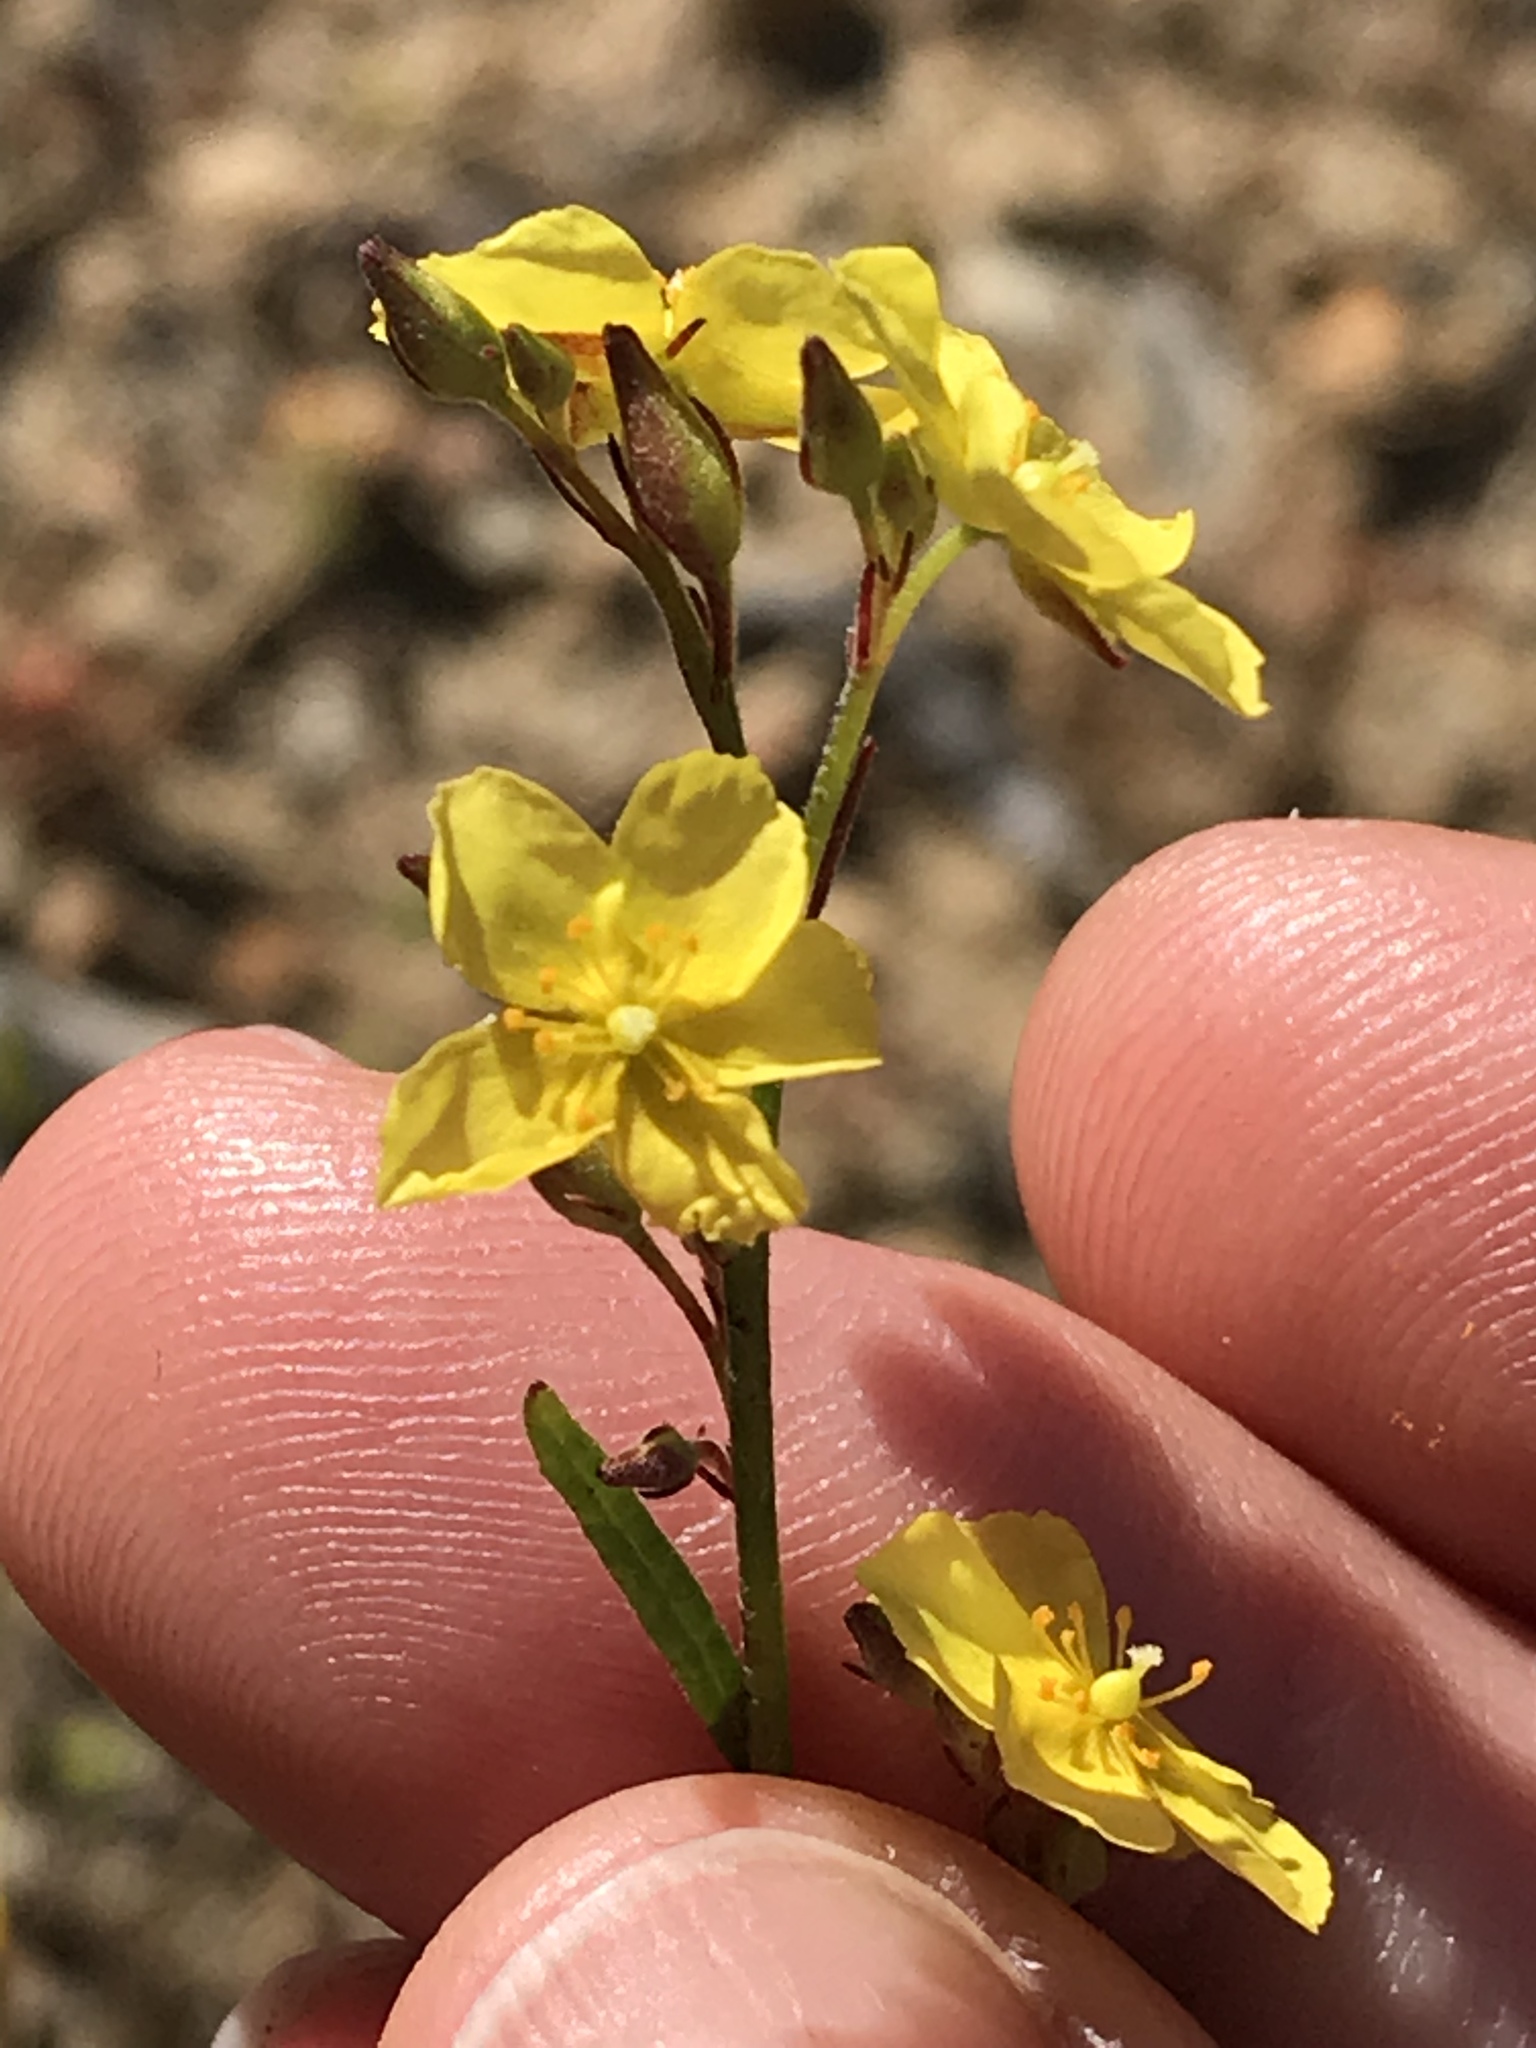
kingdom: Plantae
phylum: Tracheophyta
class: Magnoliopsida
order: Malvales
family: Cistaceae
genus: Crocanthemum
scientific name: Crocanthemum scoparium
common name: Broom-rose
